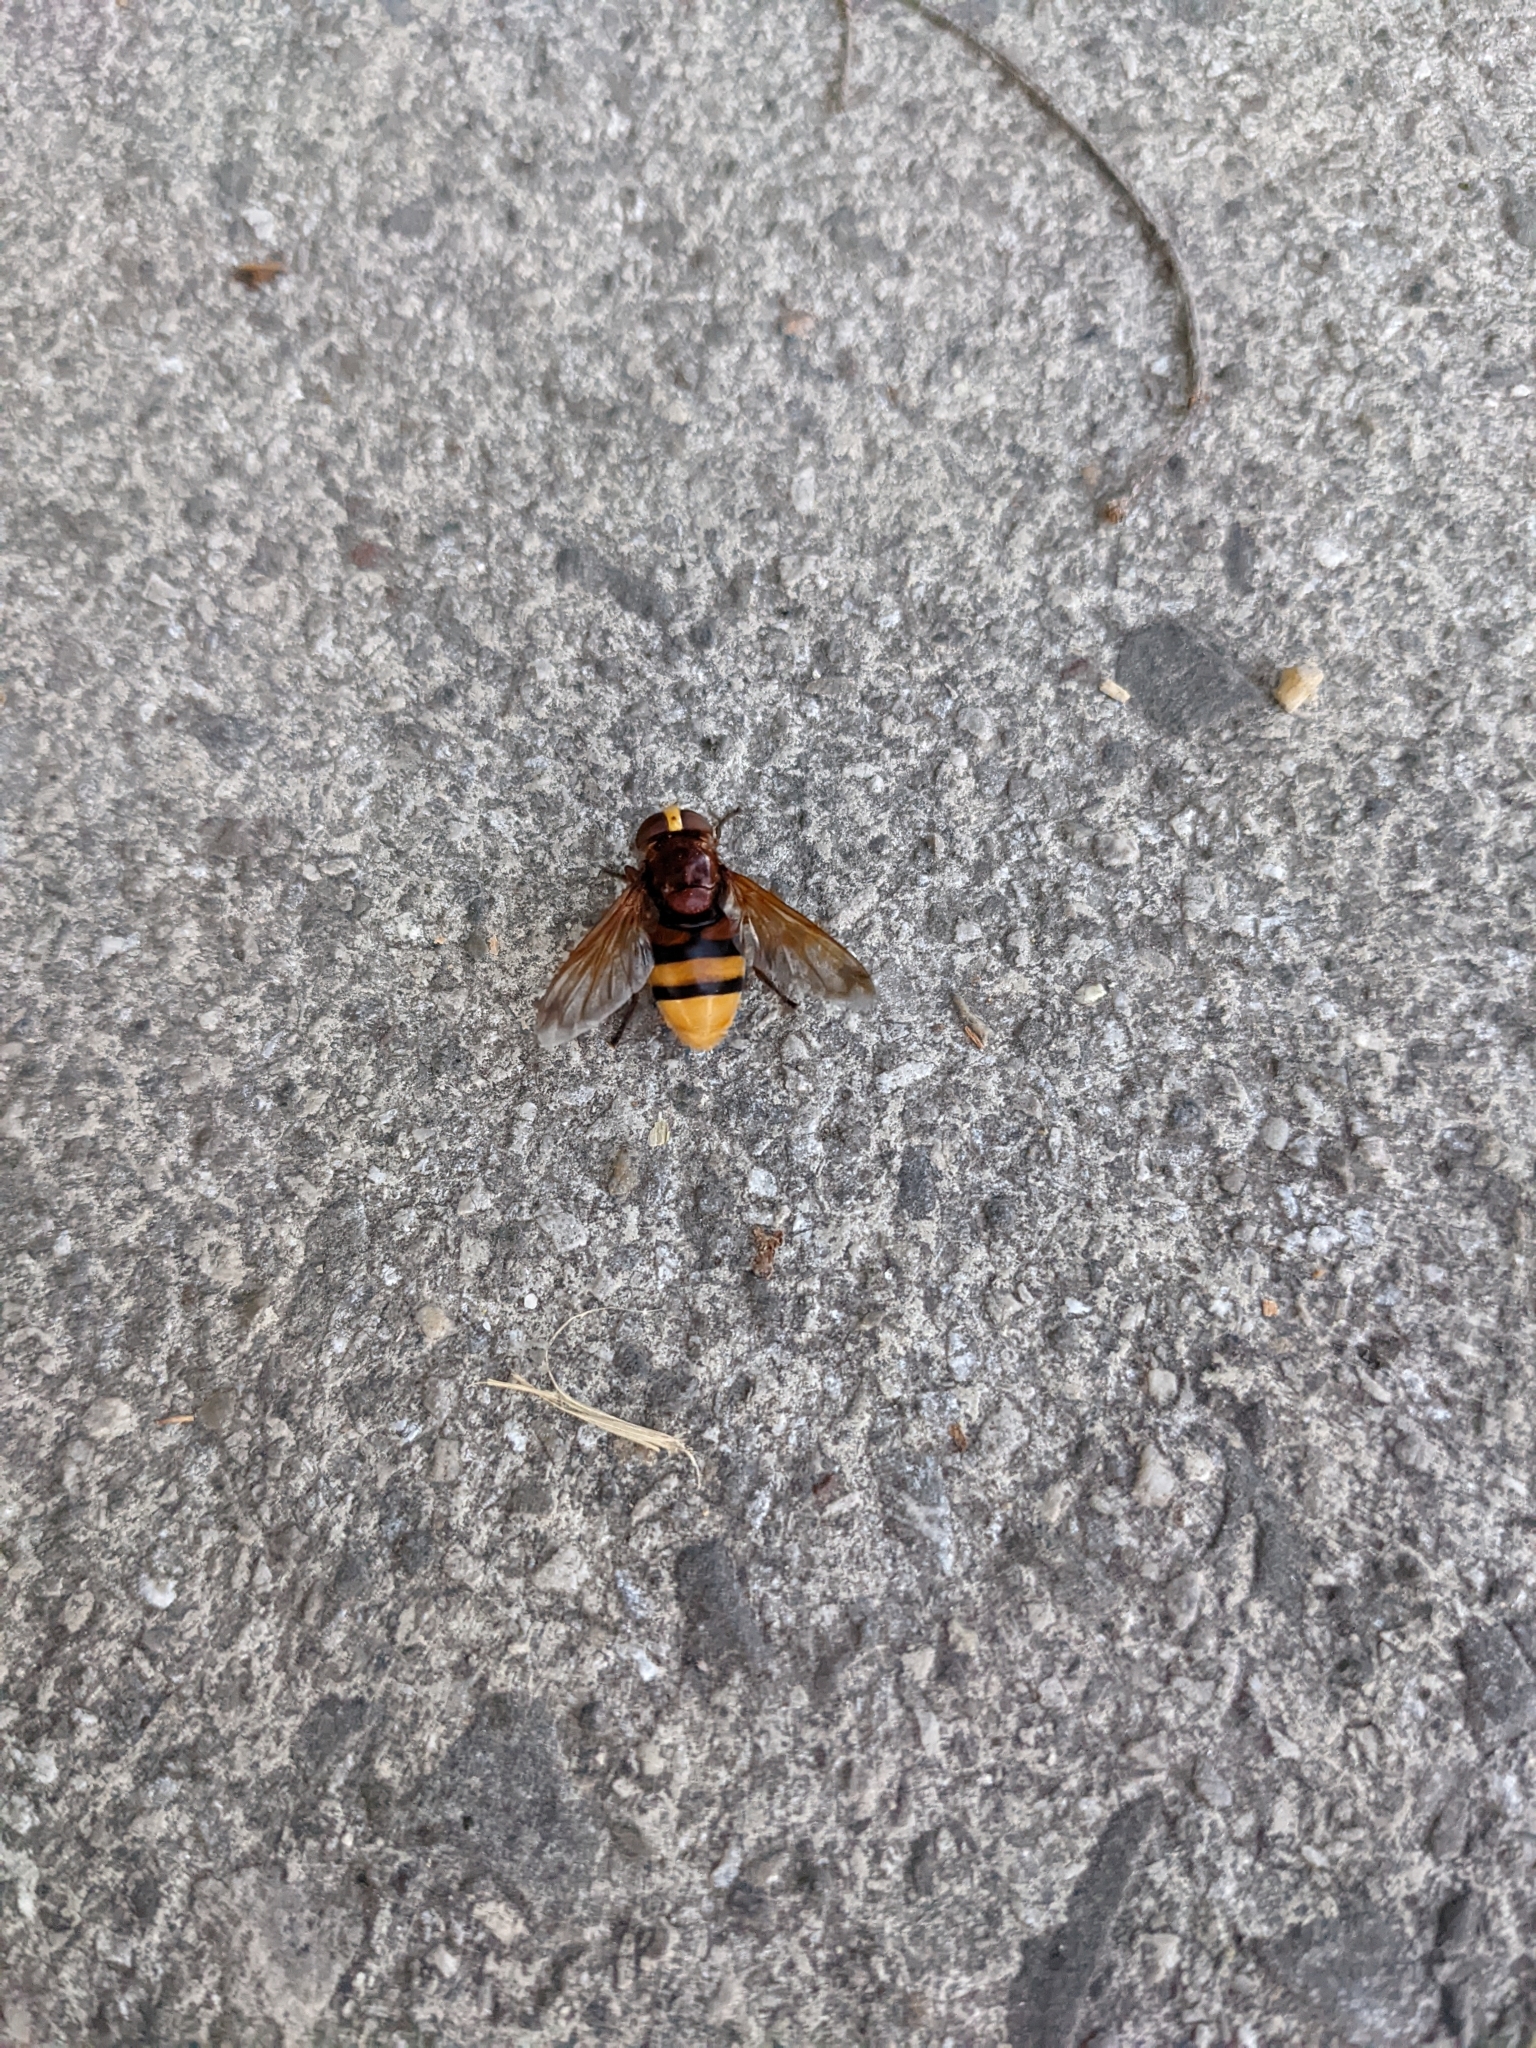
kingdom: Animalia
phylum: Arthropoda
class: Insecta
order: Diptera
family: Syrphidae
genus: Volucella
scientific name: Volucella zonaria
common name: Hornet hoverfly
